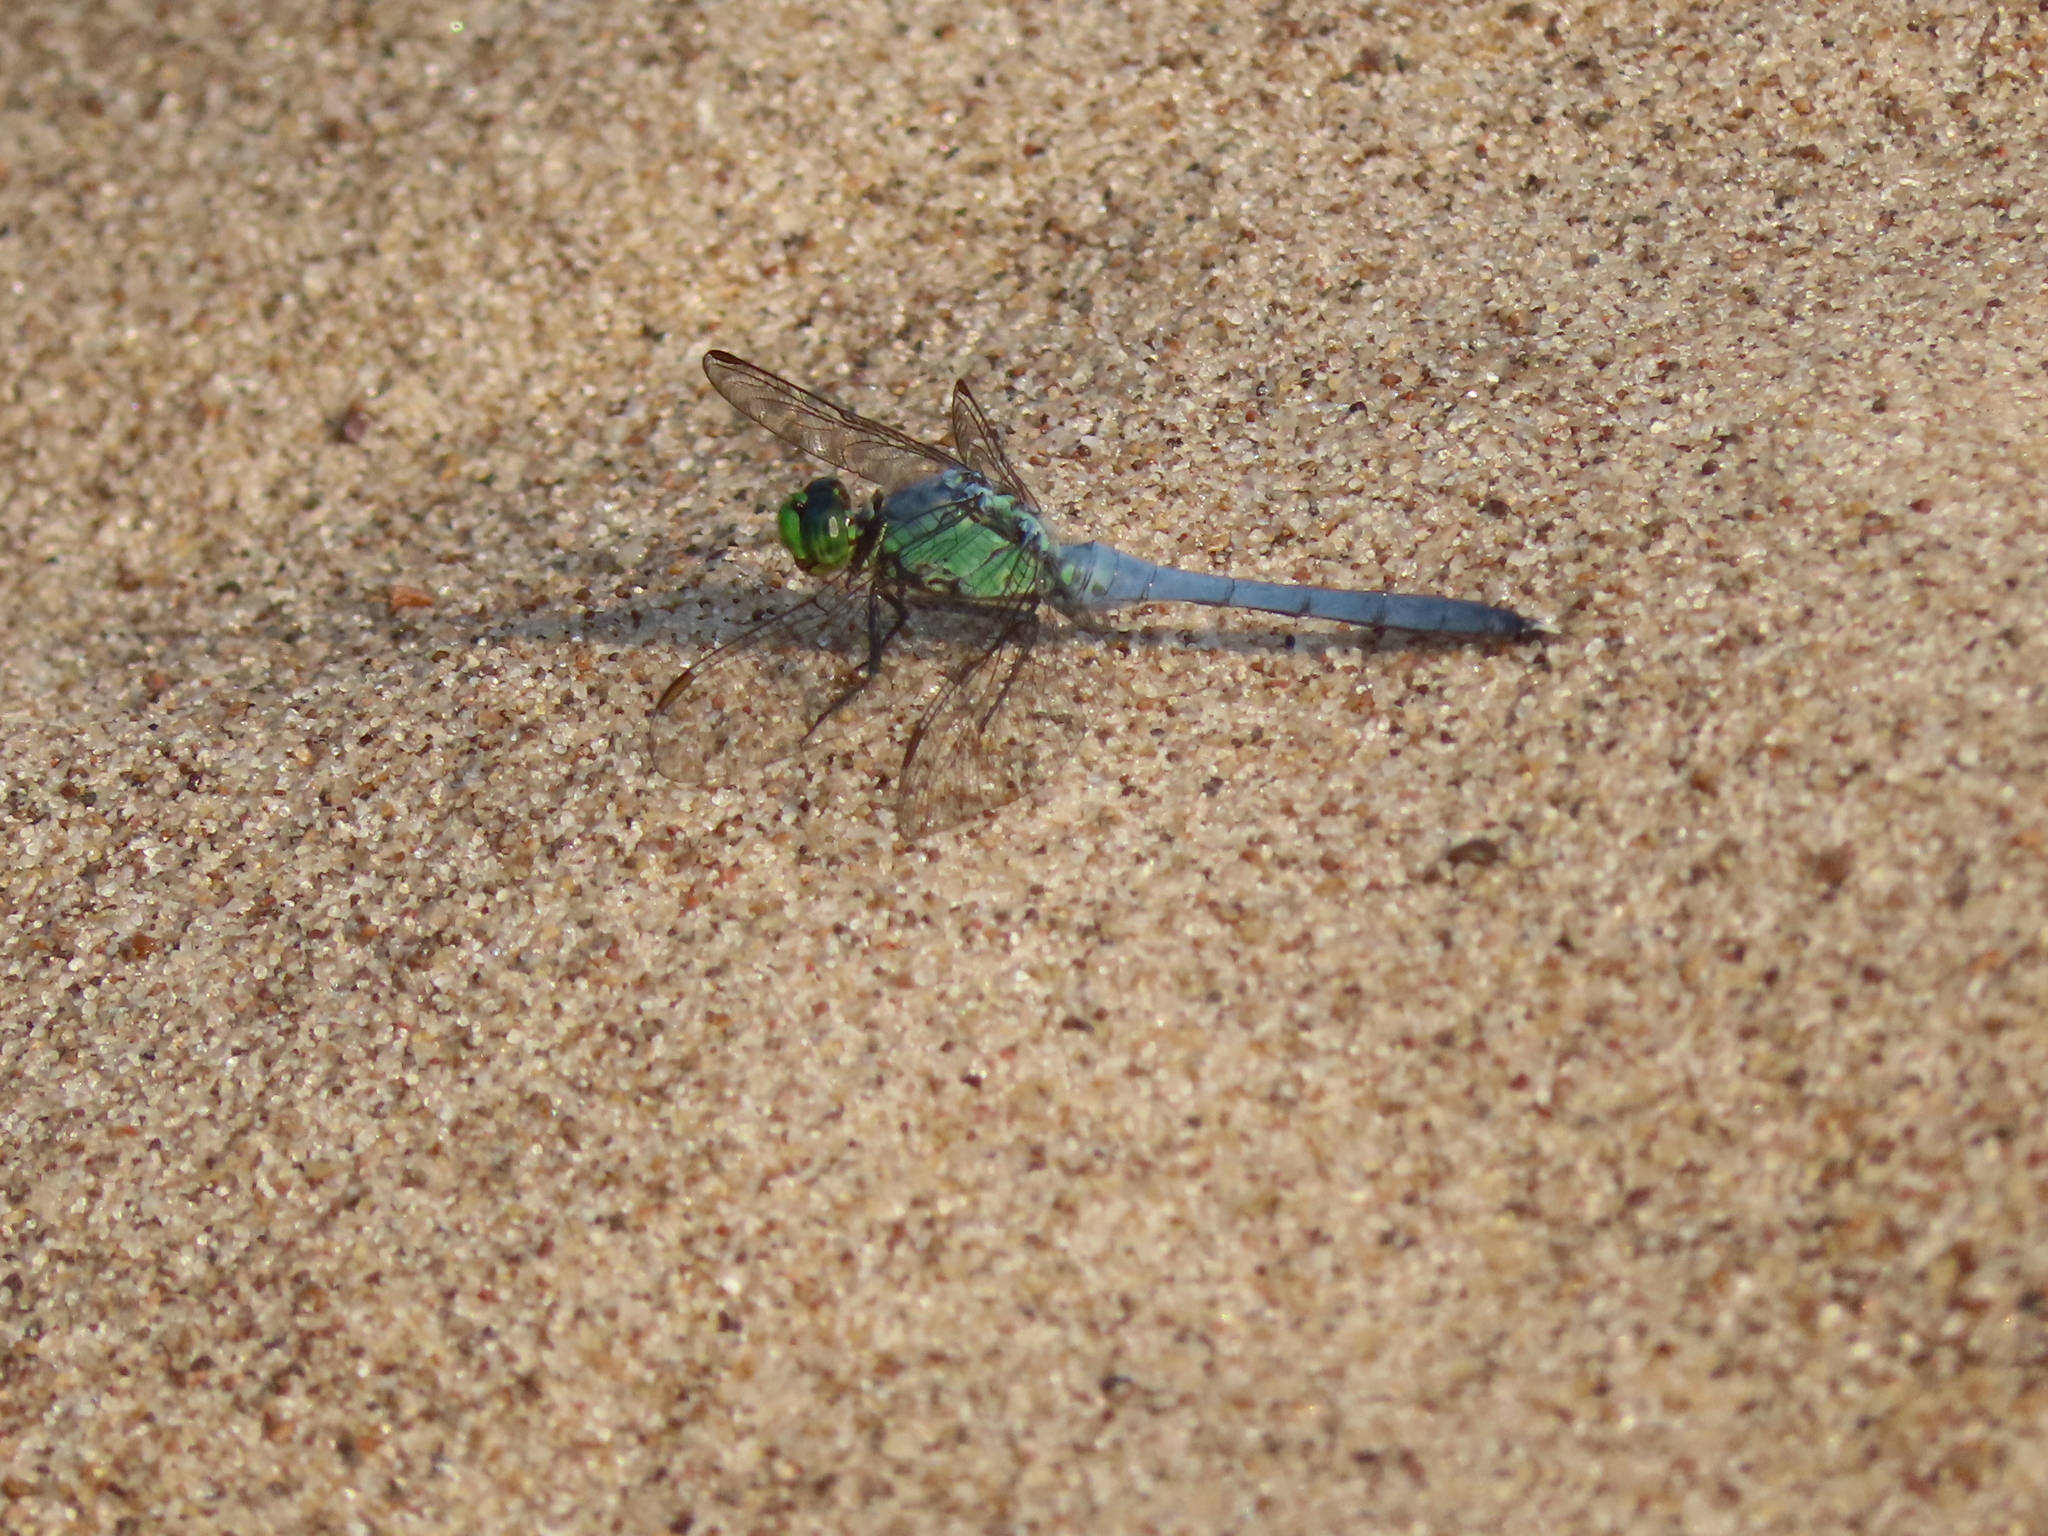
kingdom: Animalia
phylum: Arthropoda
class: Insecta
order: Odonata
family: Libellulidae
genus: Erythemis
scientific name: Erythemis simplicicollis
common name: Eastern pondhawk
